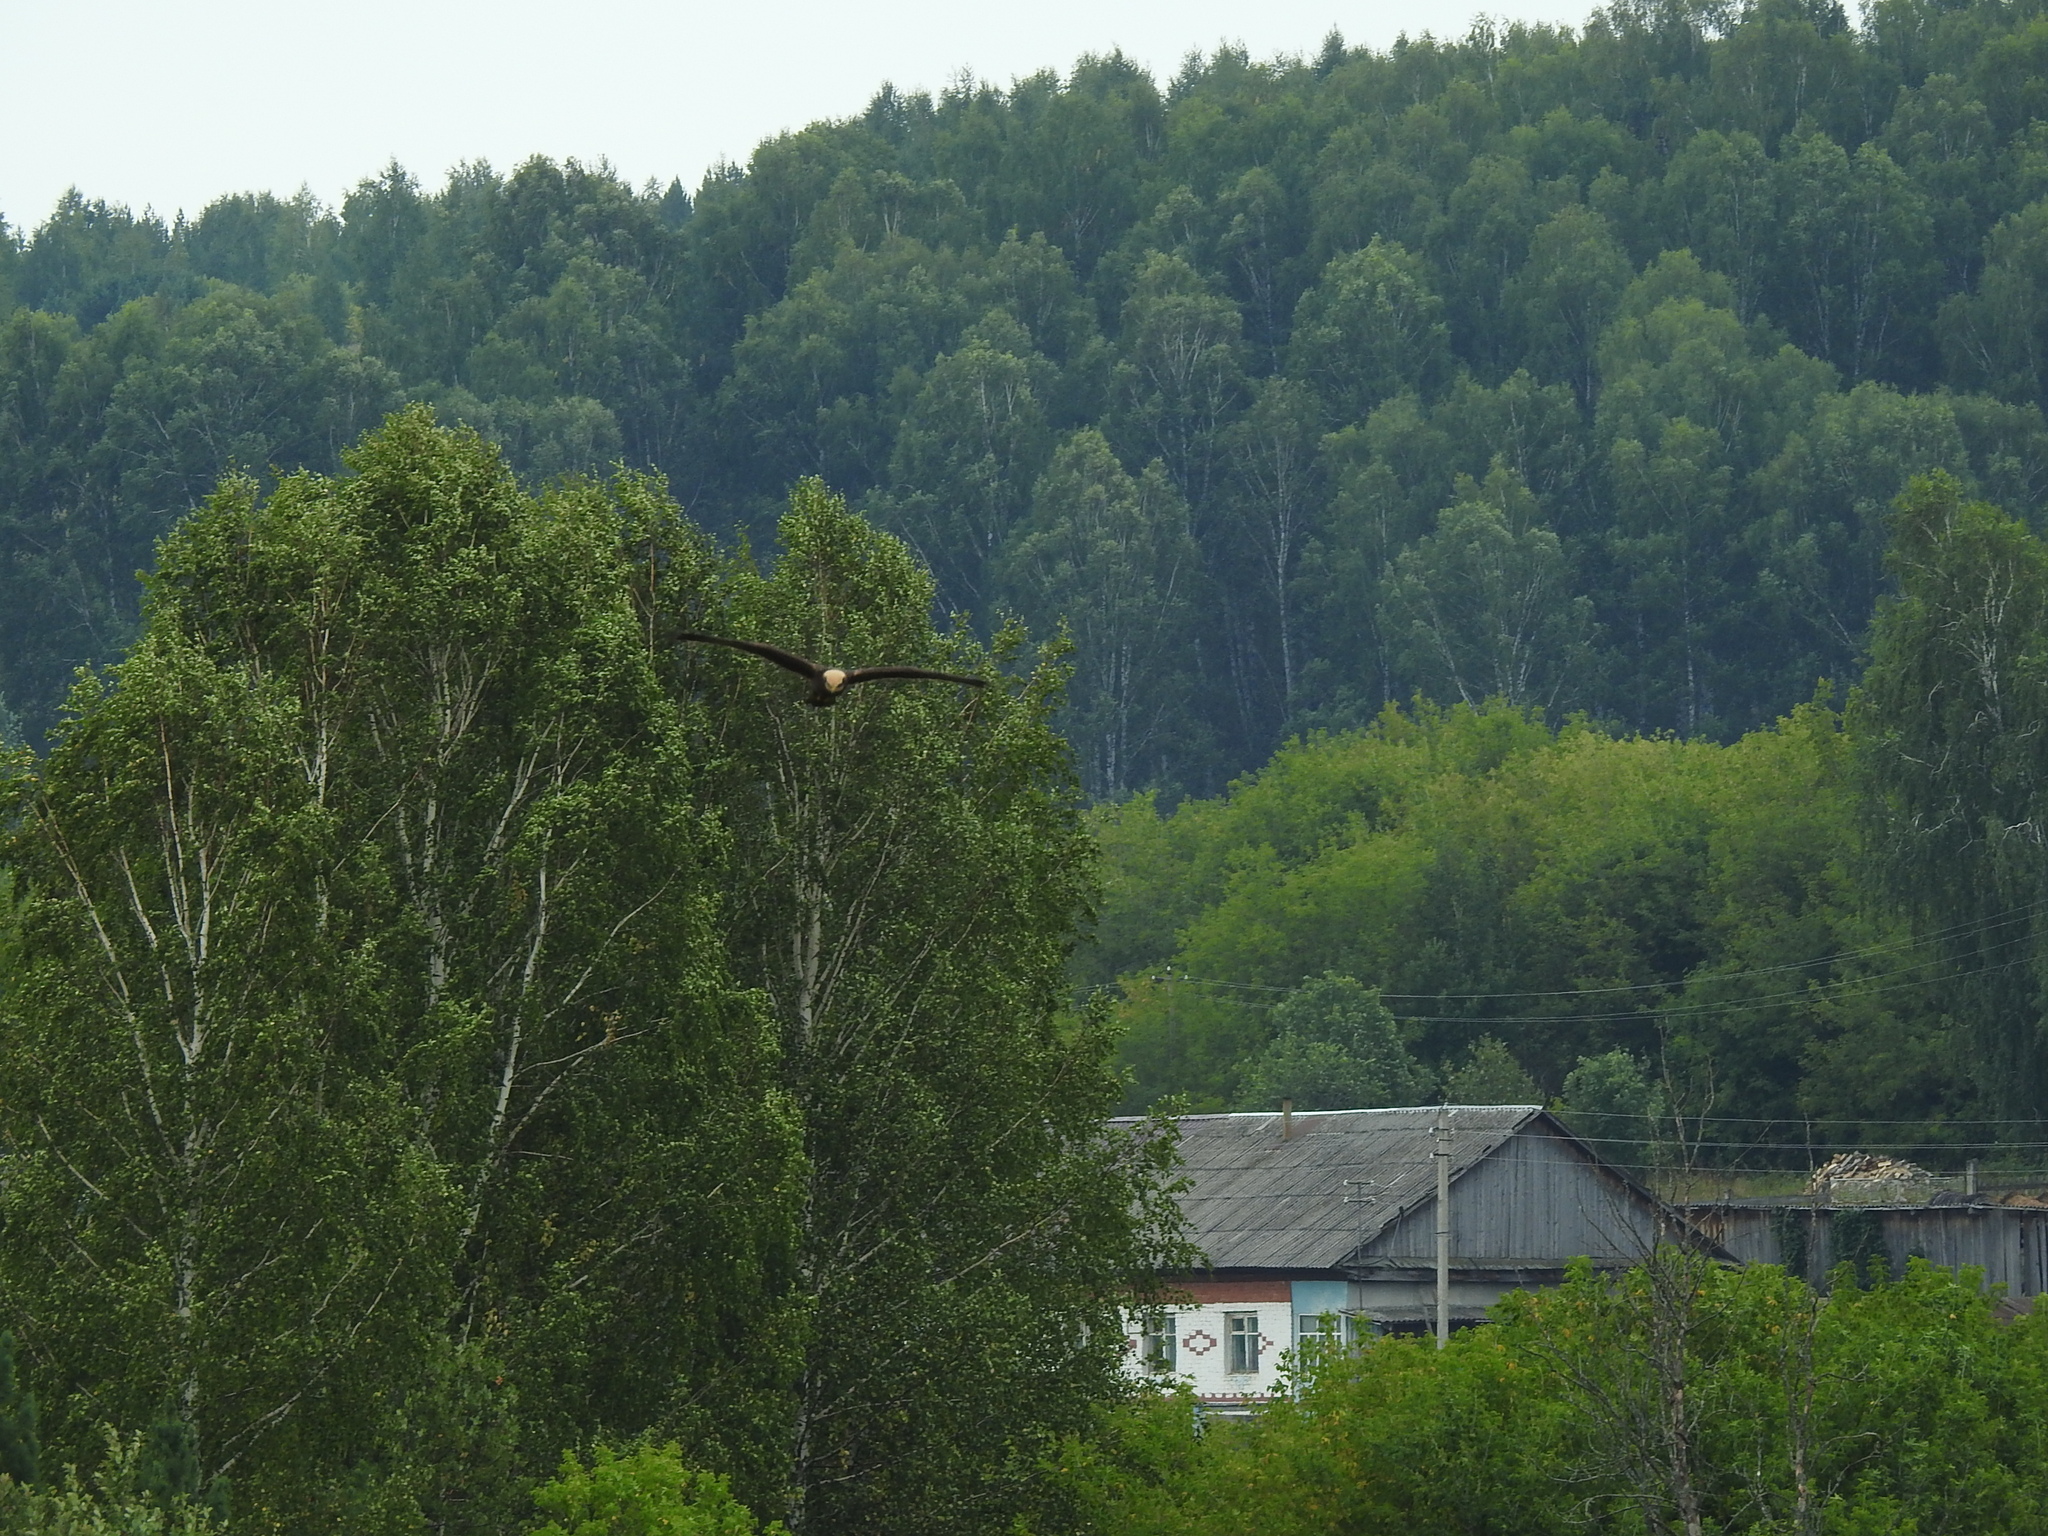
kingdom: Animalia
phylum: Chordata
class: Aves
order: Accipitriformes
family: Accipitridae
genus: Circus
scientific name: Circus aeruginosus
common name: Western marsh harrier
